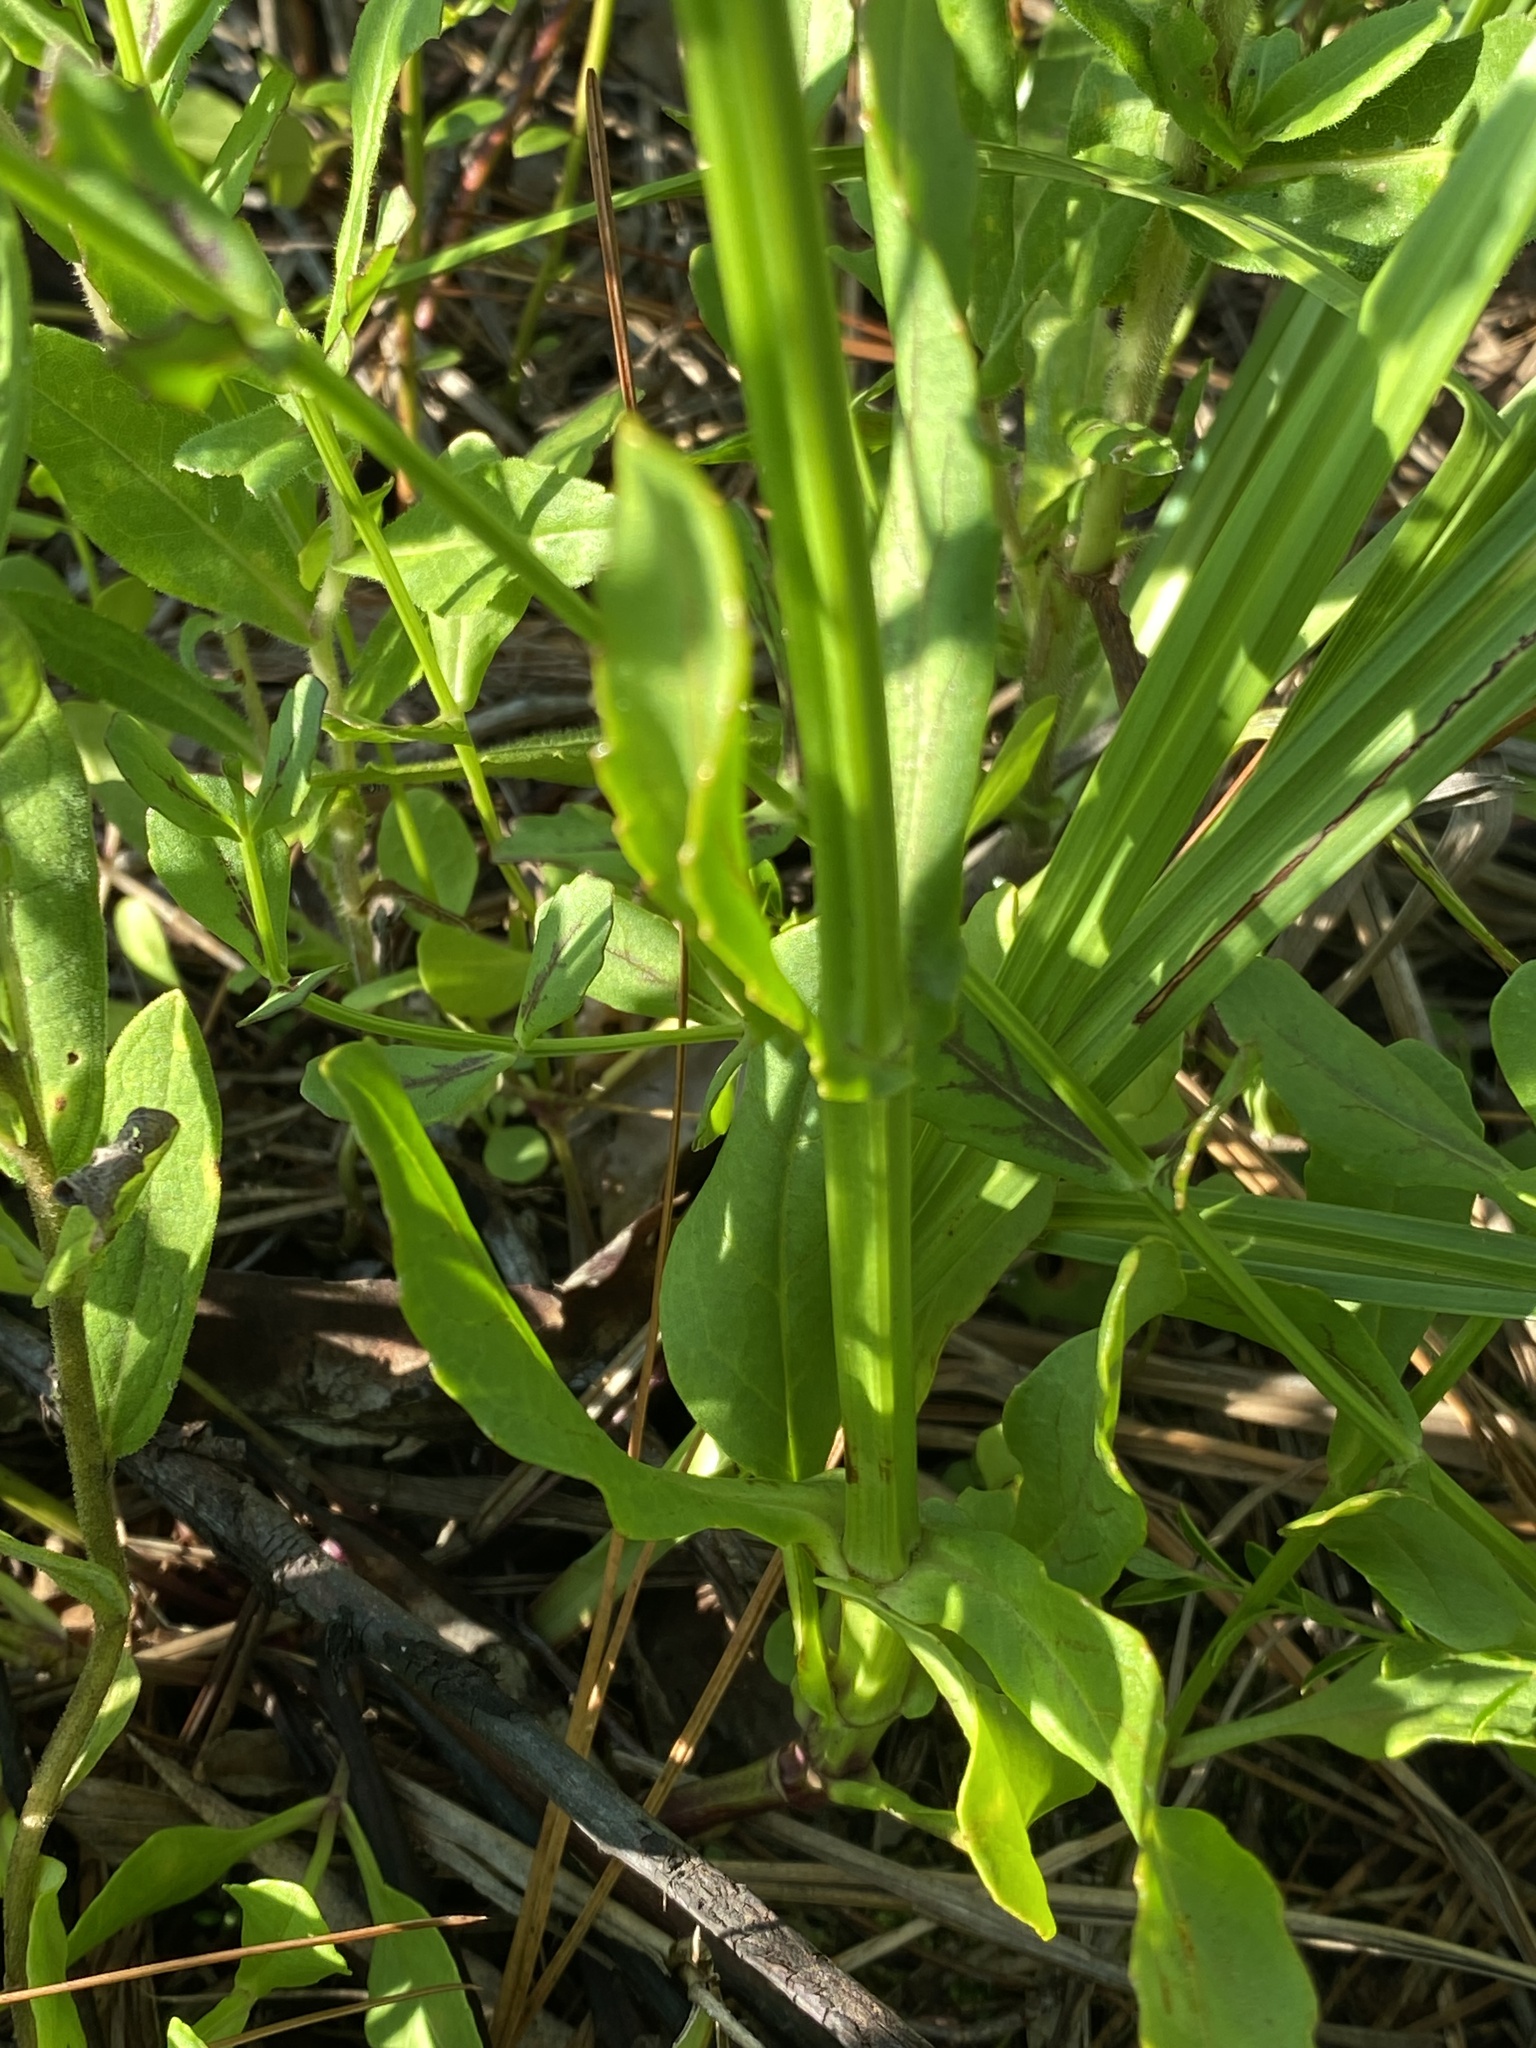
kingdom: Plantae
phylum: Tracheophyta
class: Magnoliopsida
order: Lamiales
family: Lamiaceae
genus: Physostegia
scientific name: Physostegia purpurea
